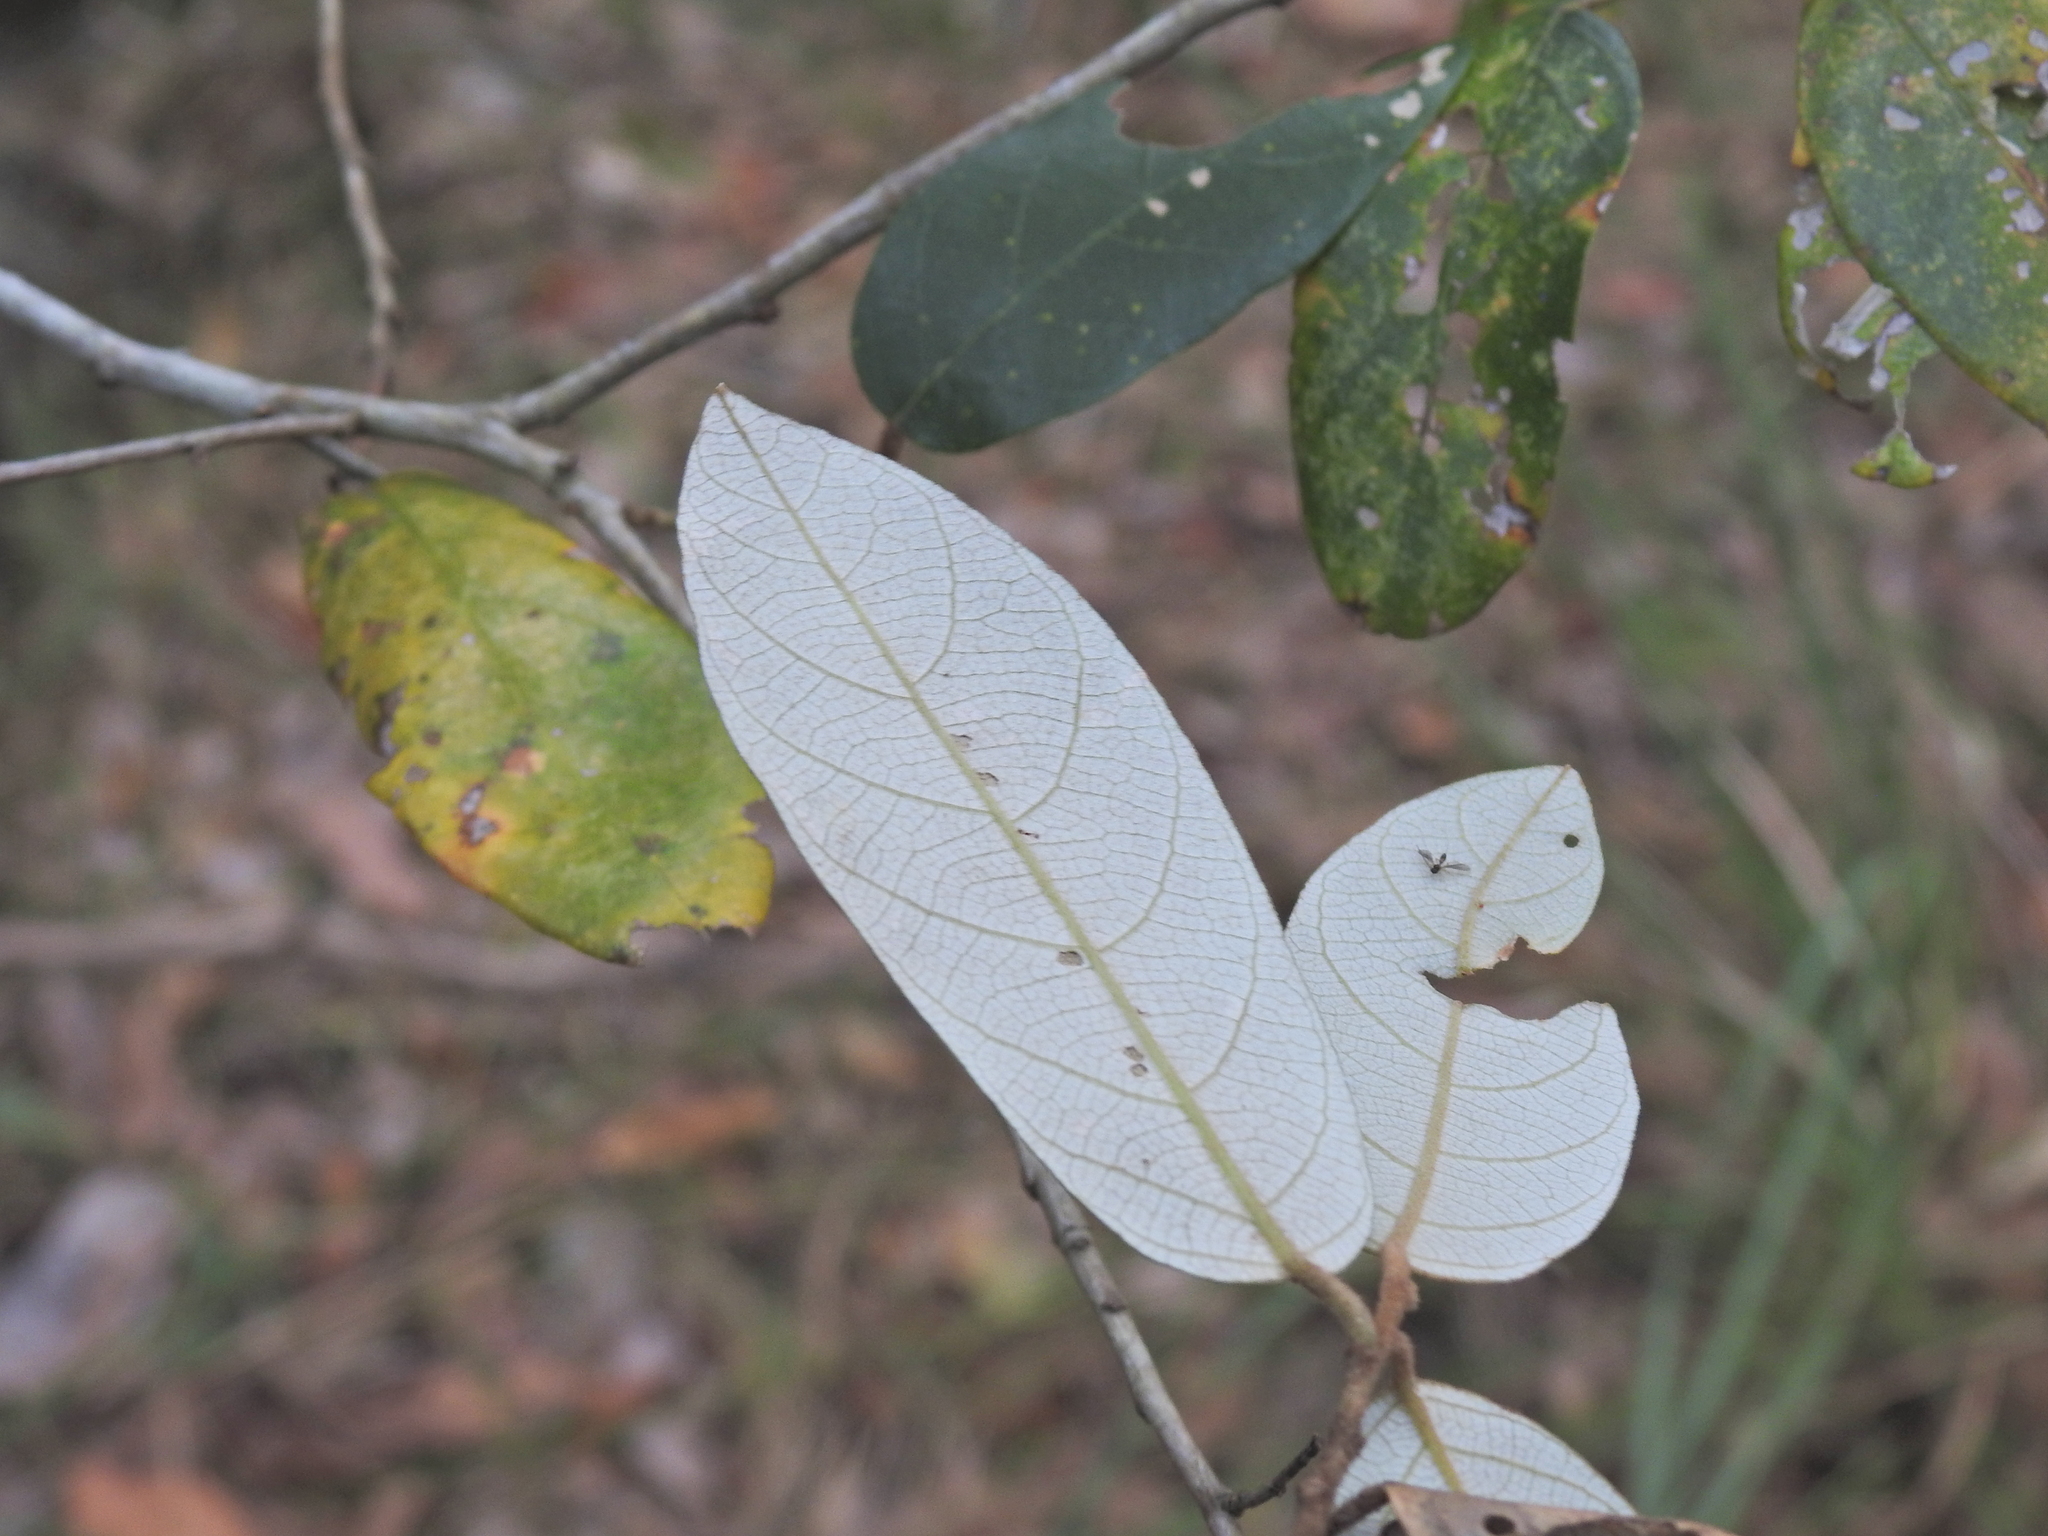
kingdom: Plantae
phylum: Tracheophyta
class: Magnoliopsida
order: Rosales
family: Rhamnaceae
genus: Alphitonia
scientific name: Alphitonia excelsa
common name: Red ash
